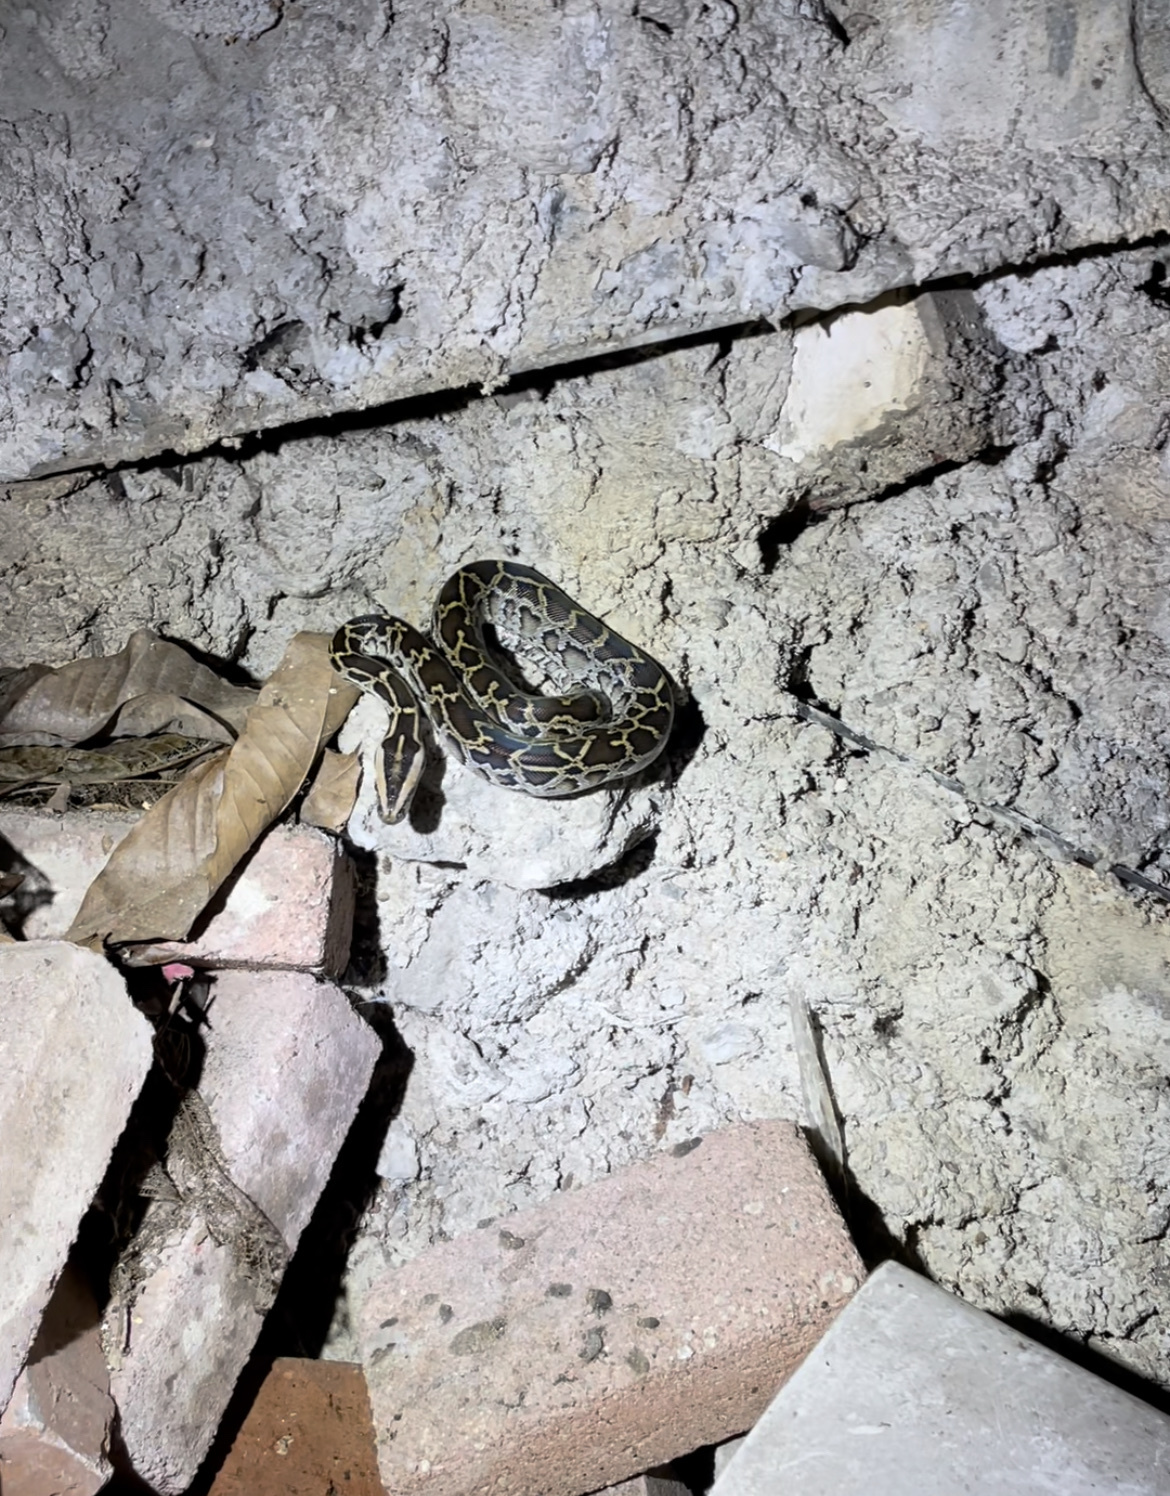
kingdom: Animalia
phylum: Chordata
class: Squamata
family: Pythonidae
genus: Python
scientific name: Python bivittatus
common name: Burmese python
